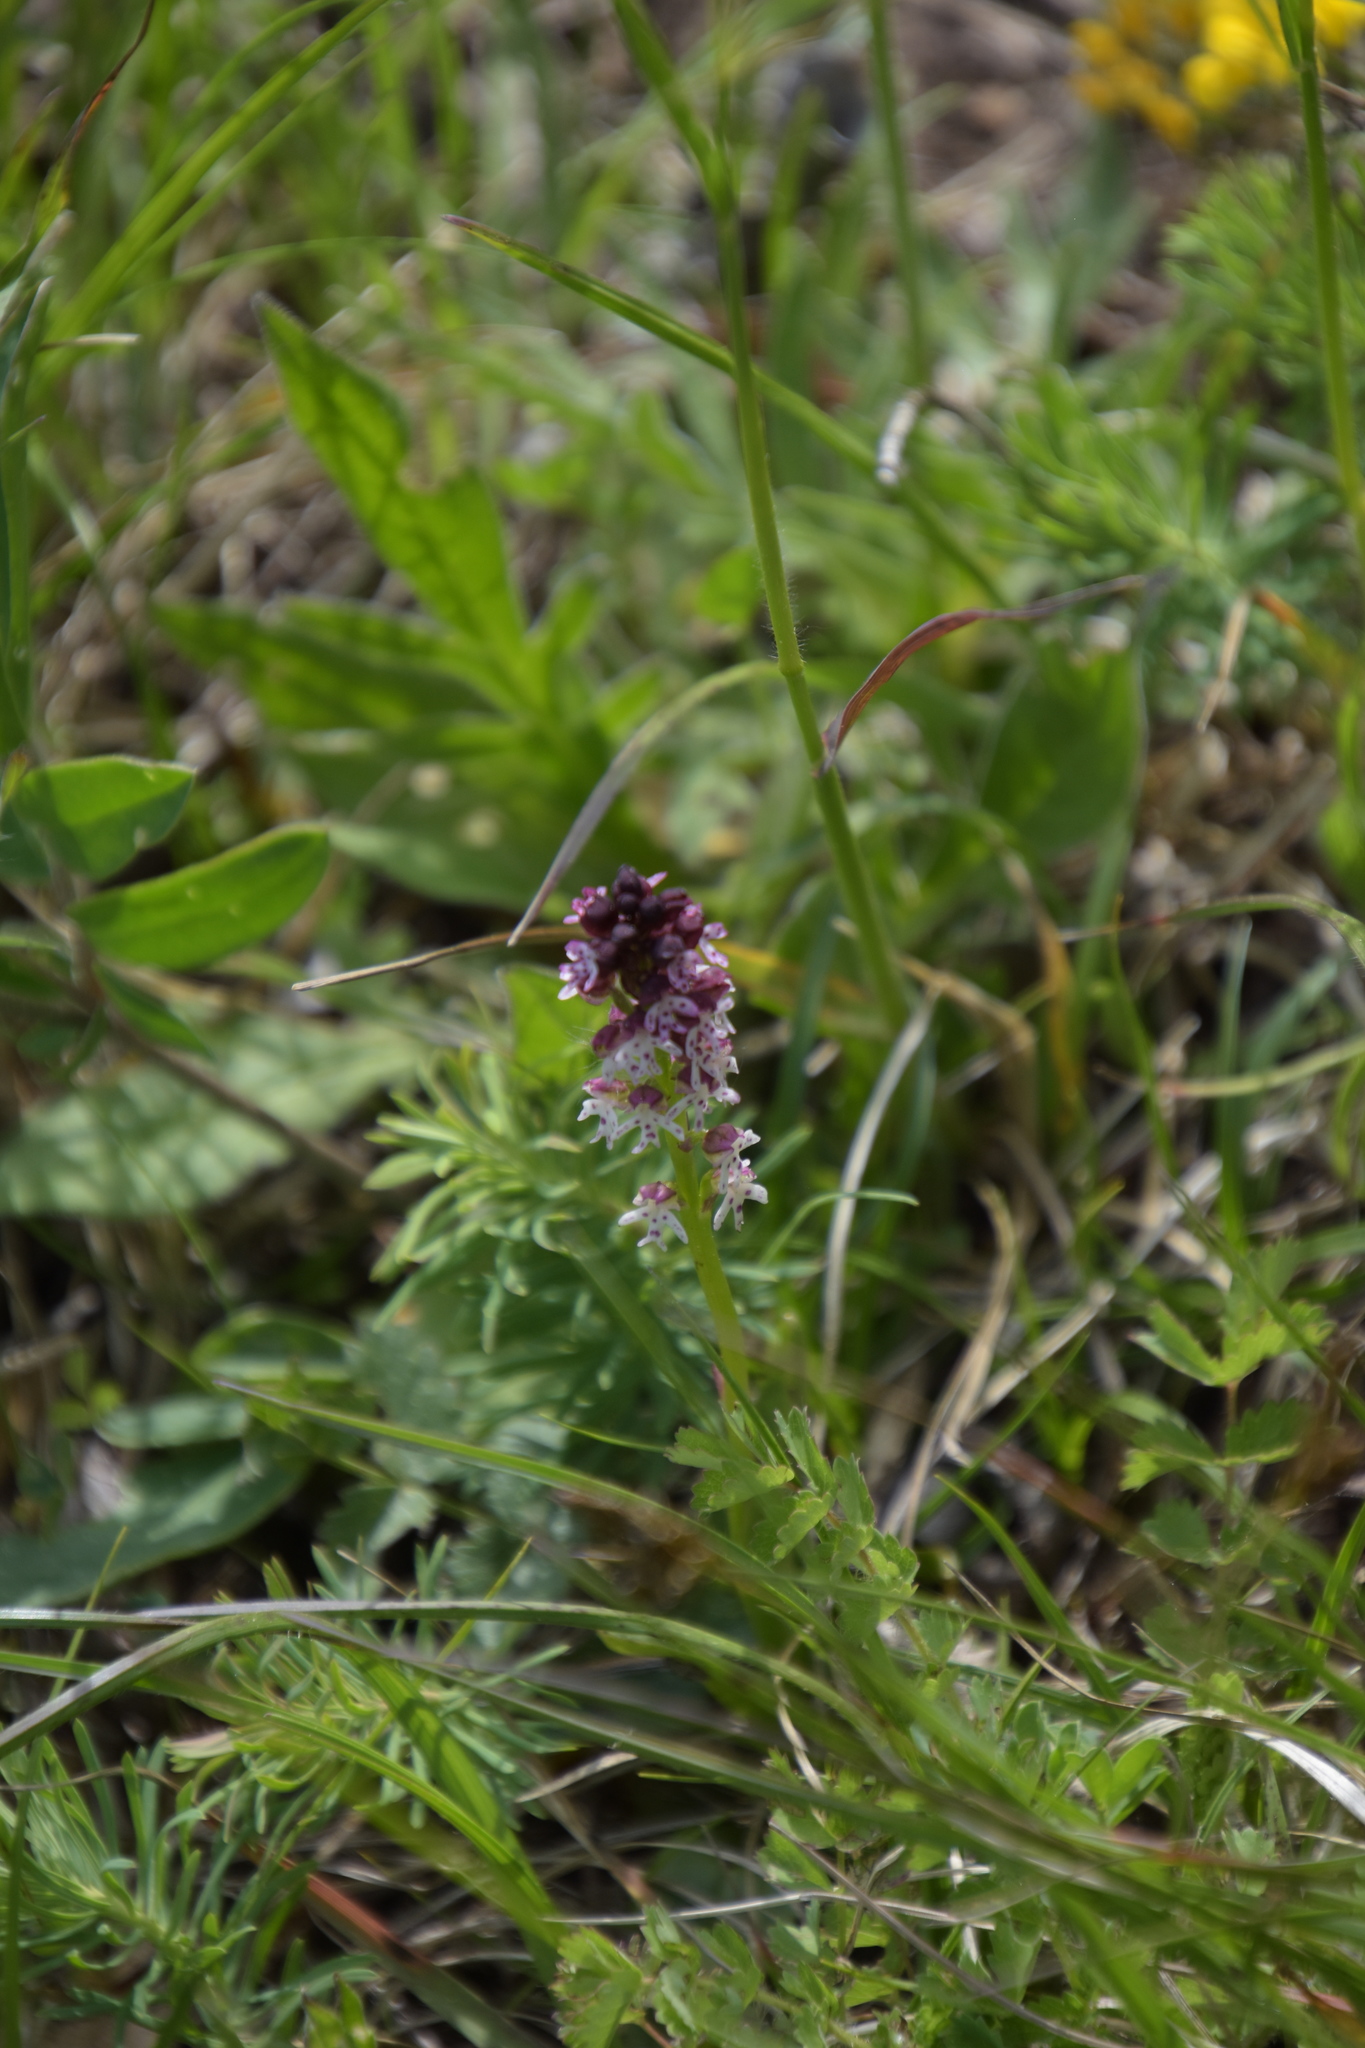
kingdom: Plantae
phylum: Tracheophyta
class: Liliopsida
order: Asparagales
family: Orchidaceae
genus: Neotinea
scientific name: Neotinea ustulata
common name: Burnt orchid
